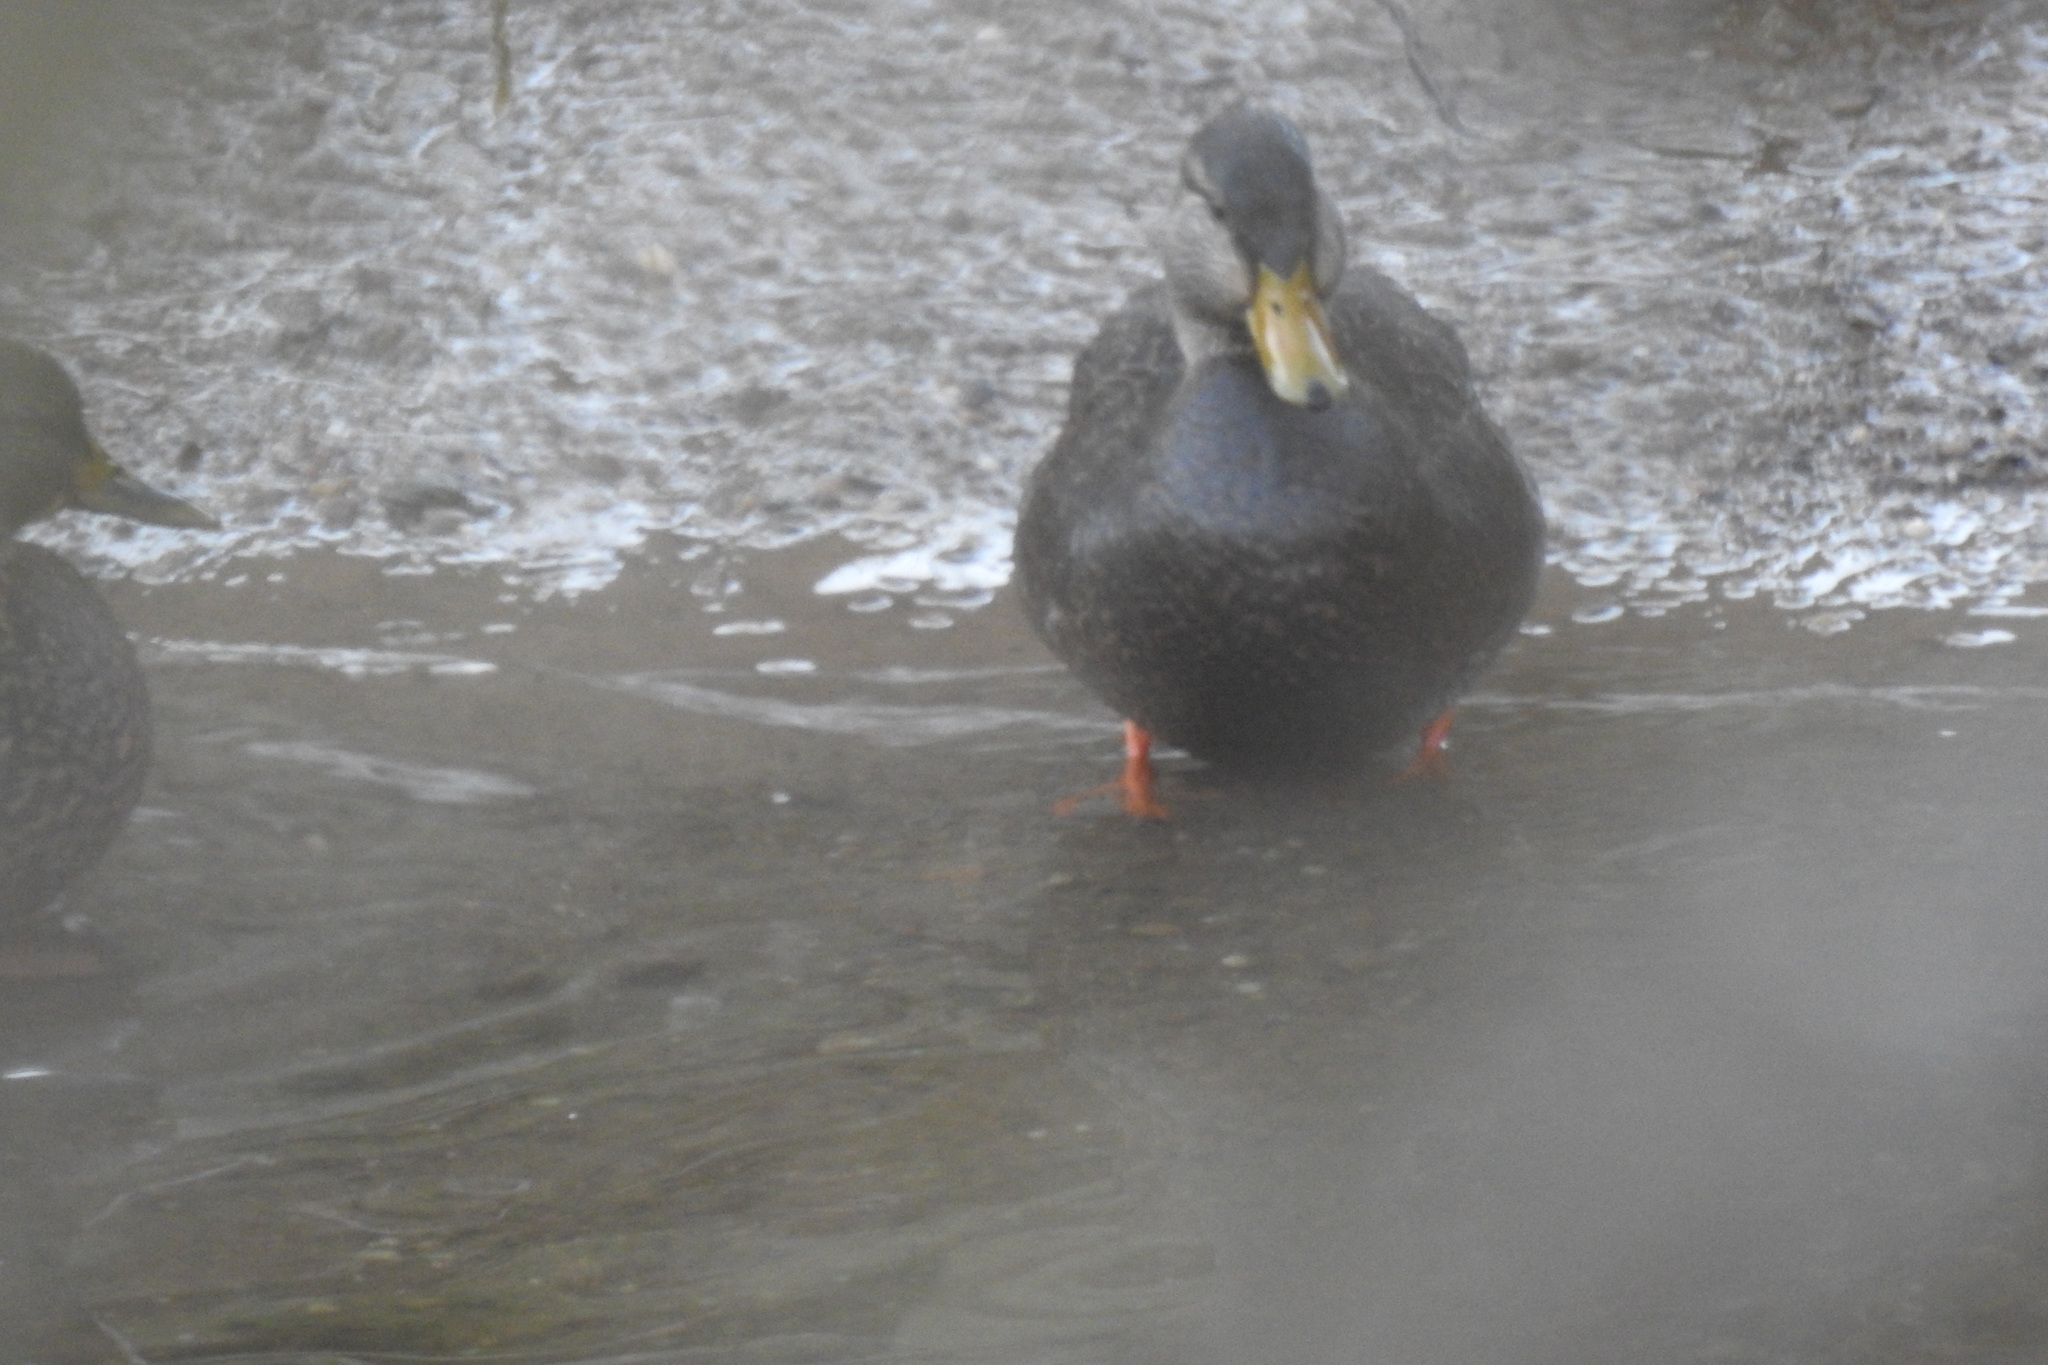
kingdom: Animalia
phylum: Chordata
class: Aves
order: Anseriformes
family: Anatidae
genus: Anas
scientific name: Anas rubripes
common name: American black duck
